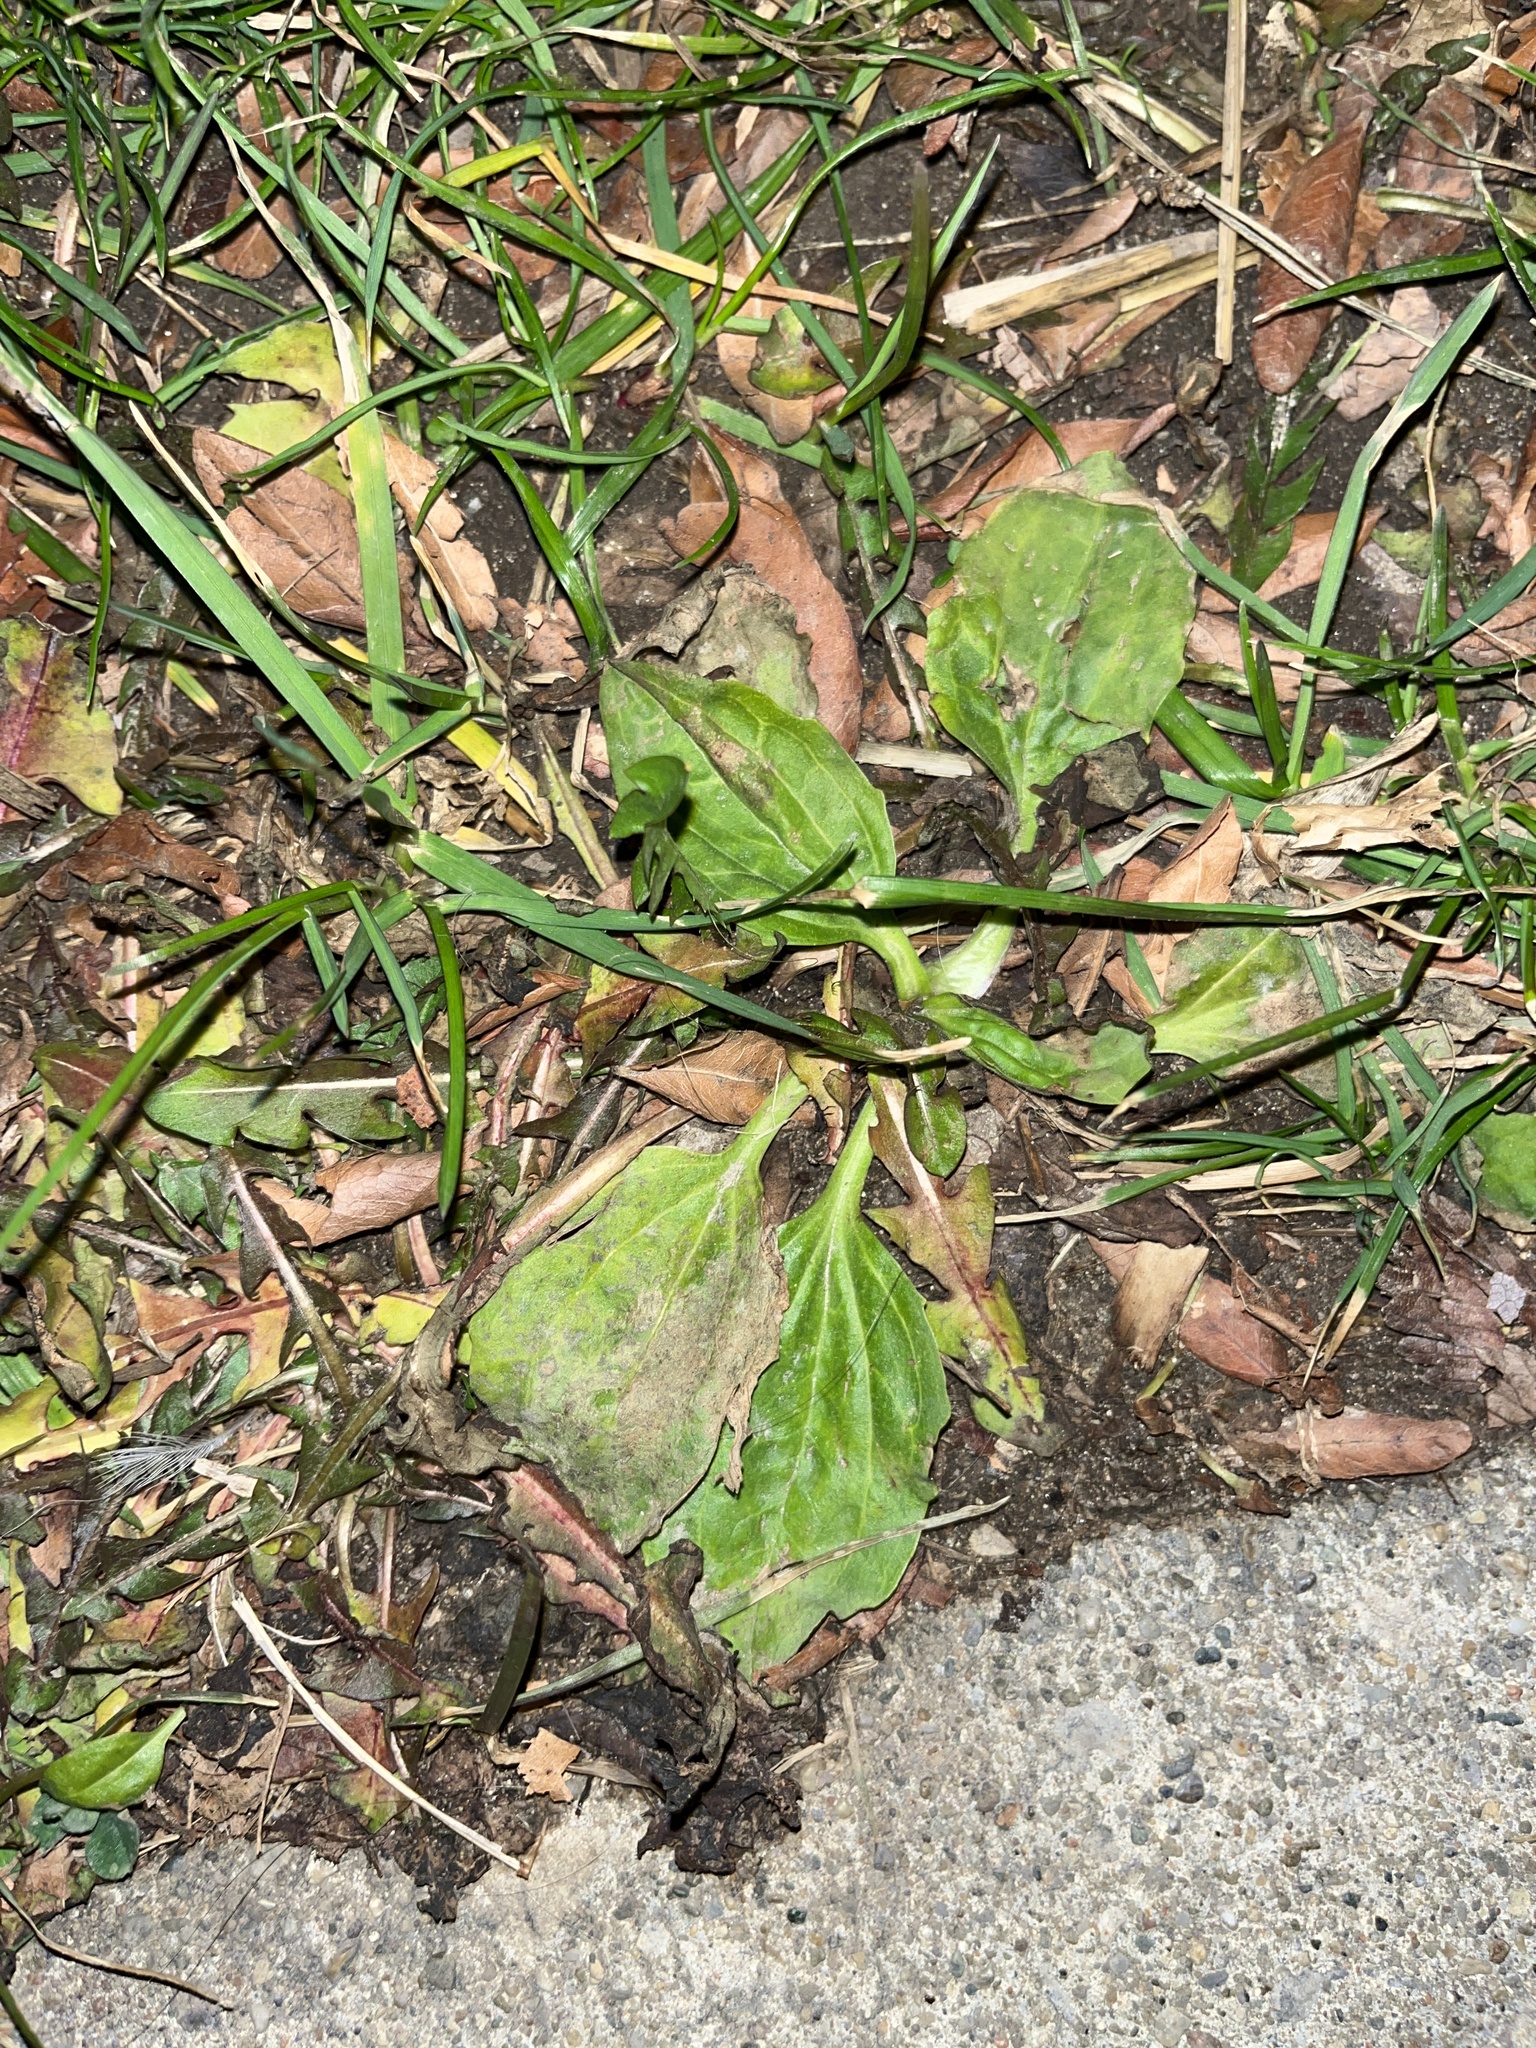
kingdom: Plantae
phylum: Tracheophyta
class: Magnoliopsida
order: Lamiales
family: Plantaginaceae
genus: Plantago
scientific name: Plantago major
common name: Common plantain
